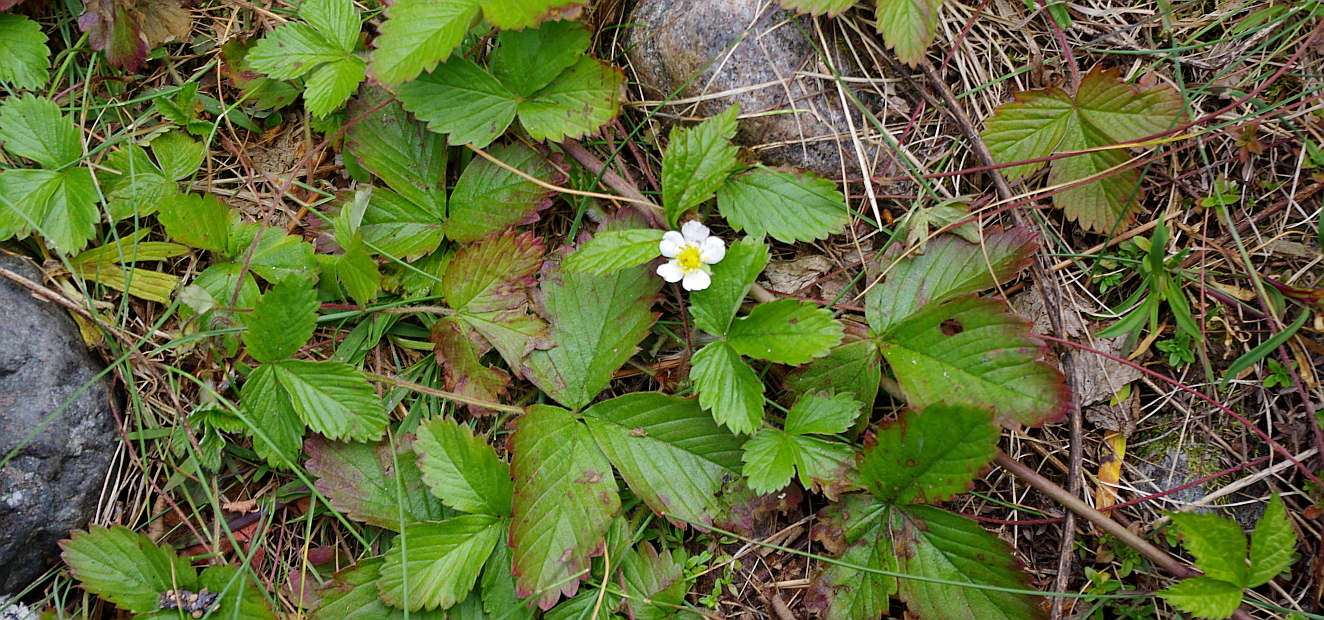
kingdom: Plantae
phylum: Tracheophyta
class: Magnoliopsida
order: Rosales
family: Rosaceae
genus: Fragaria
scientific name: Fragaria vesca
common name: Wild strawberry
